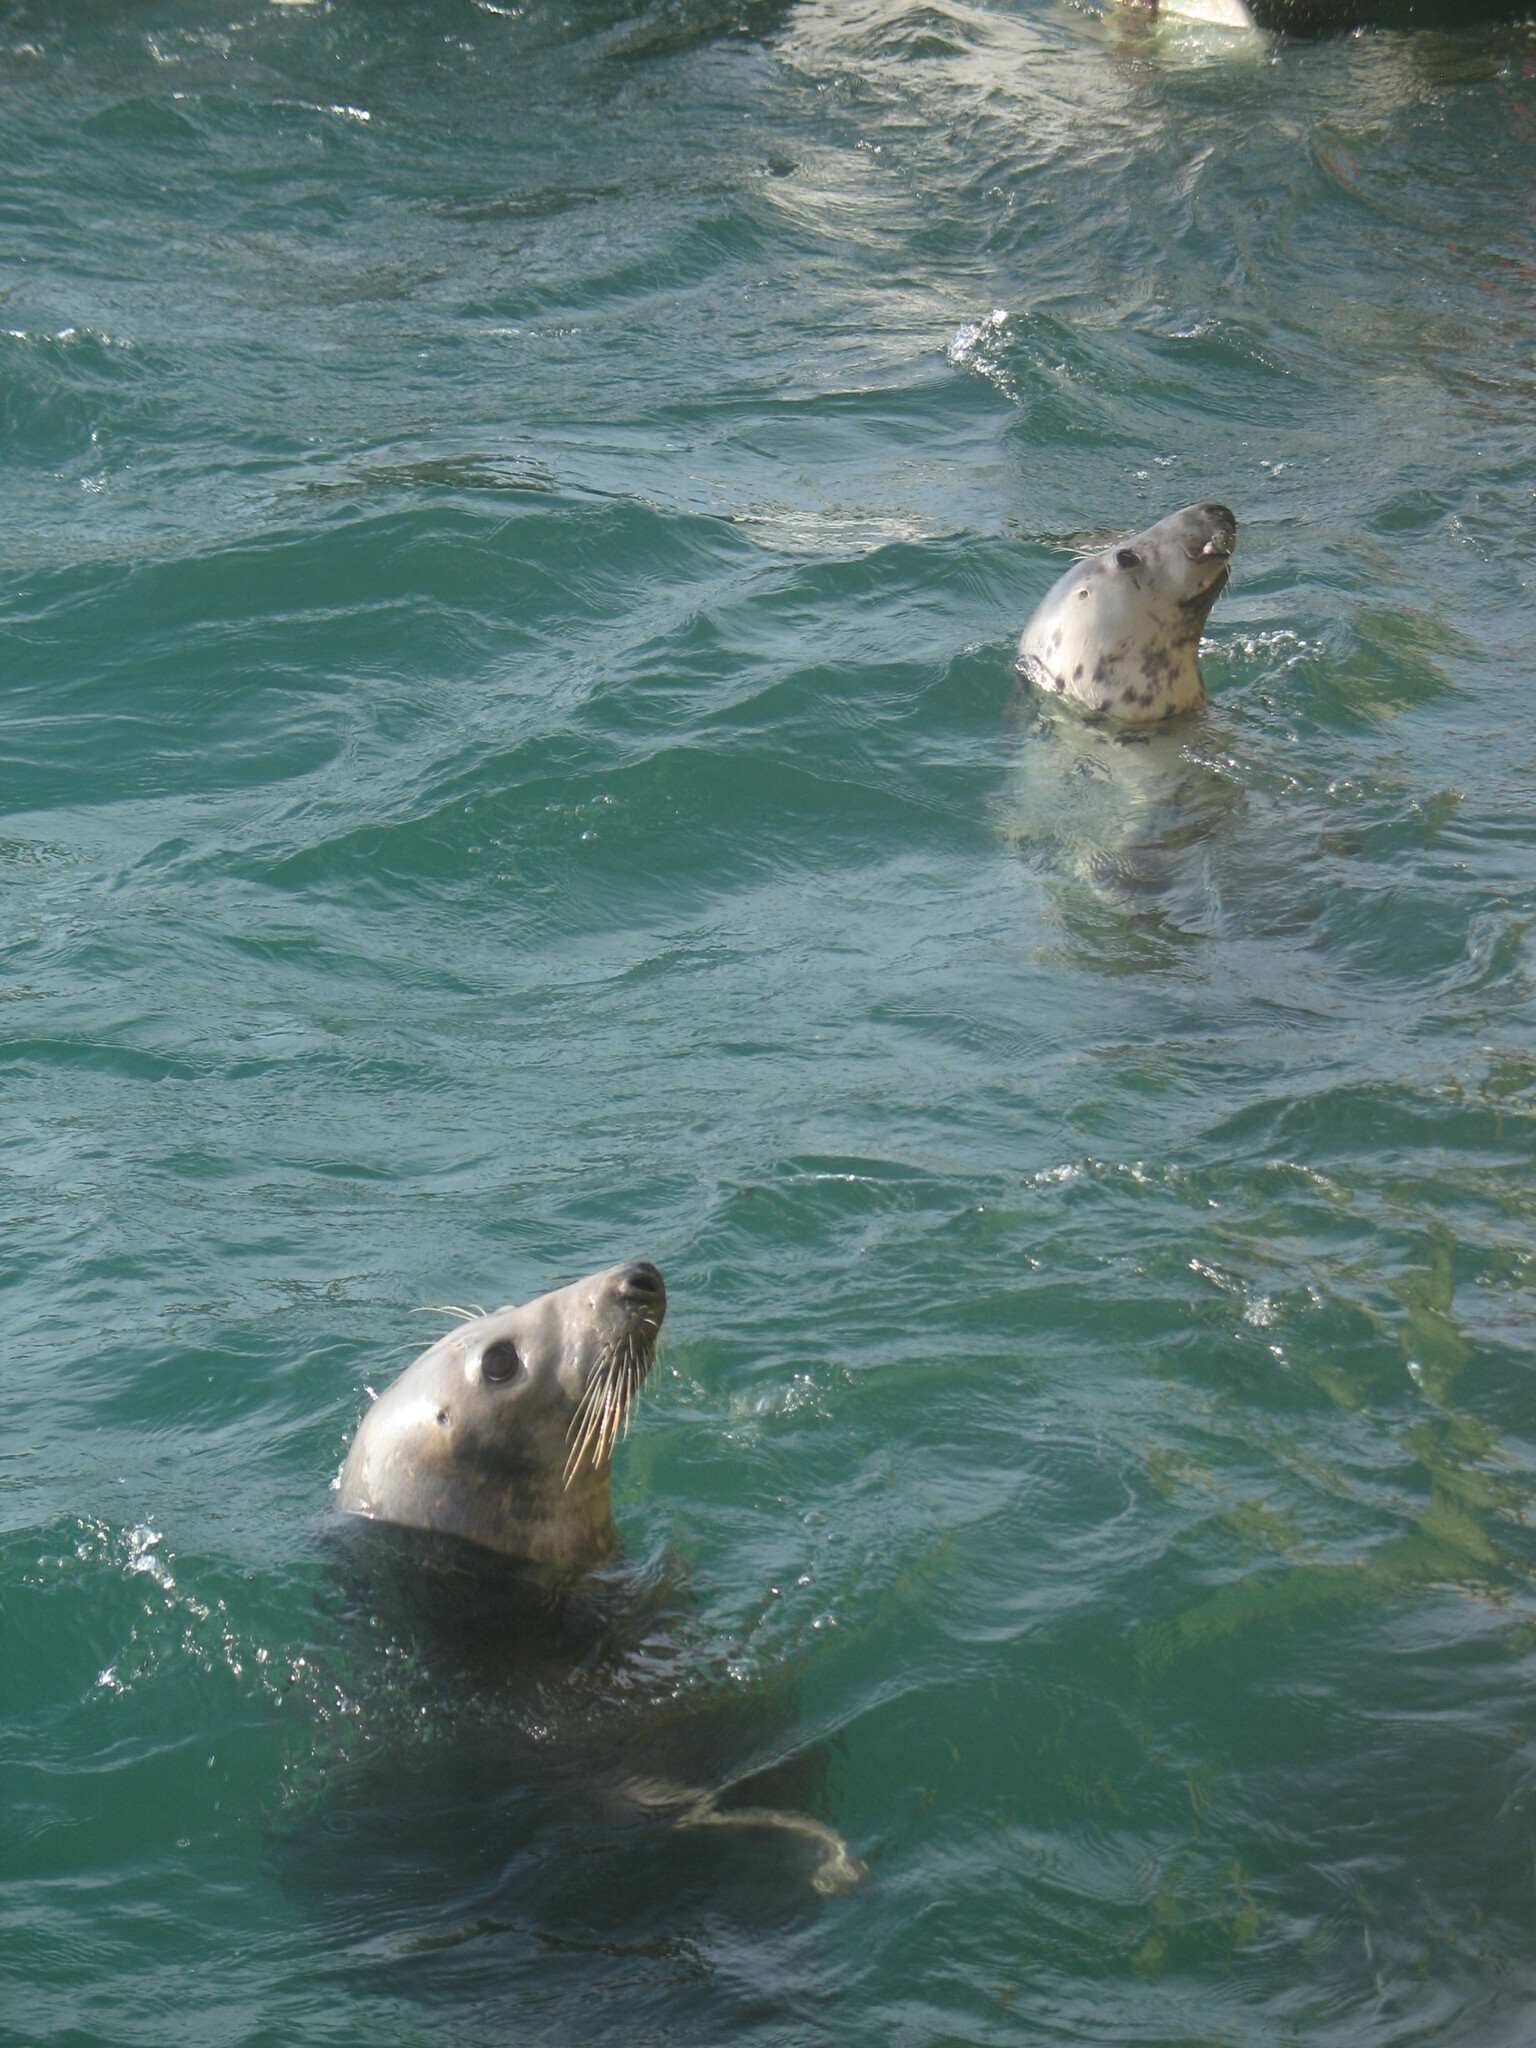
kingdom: Animalia
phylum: Chordata
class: Mammalia
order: Carnivora
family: Phocidae
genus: Halichoerus
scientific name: Halichoerus grypus
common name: Grey seal
